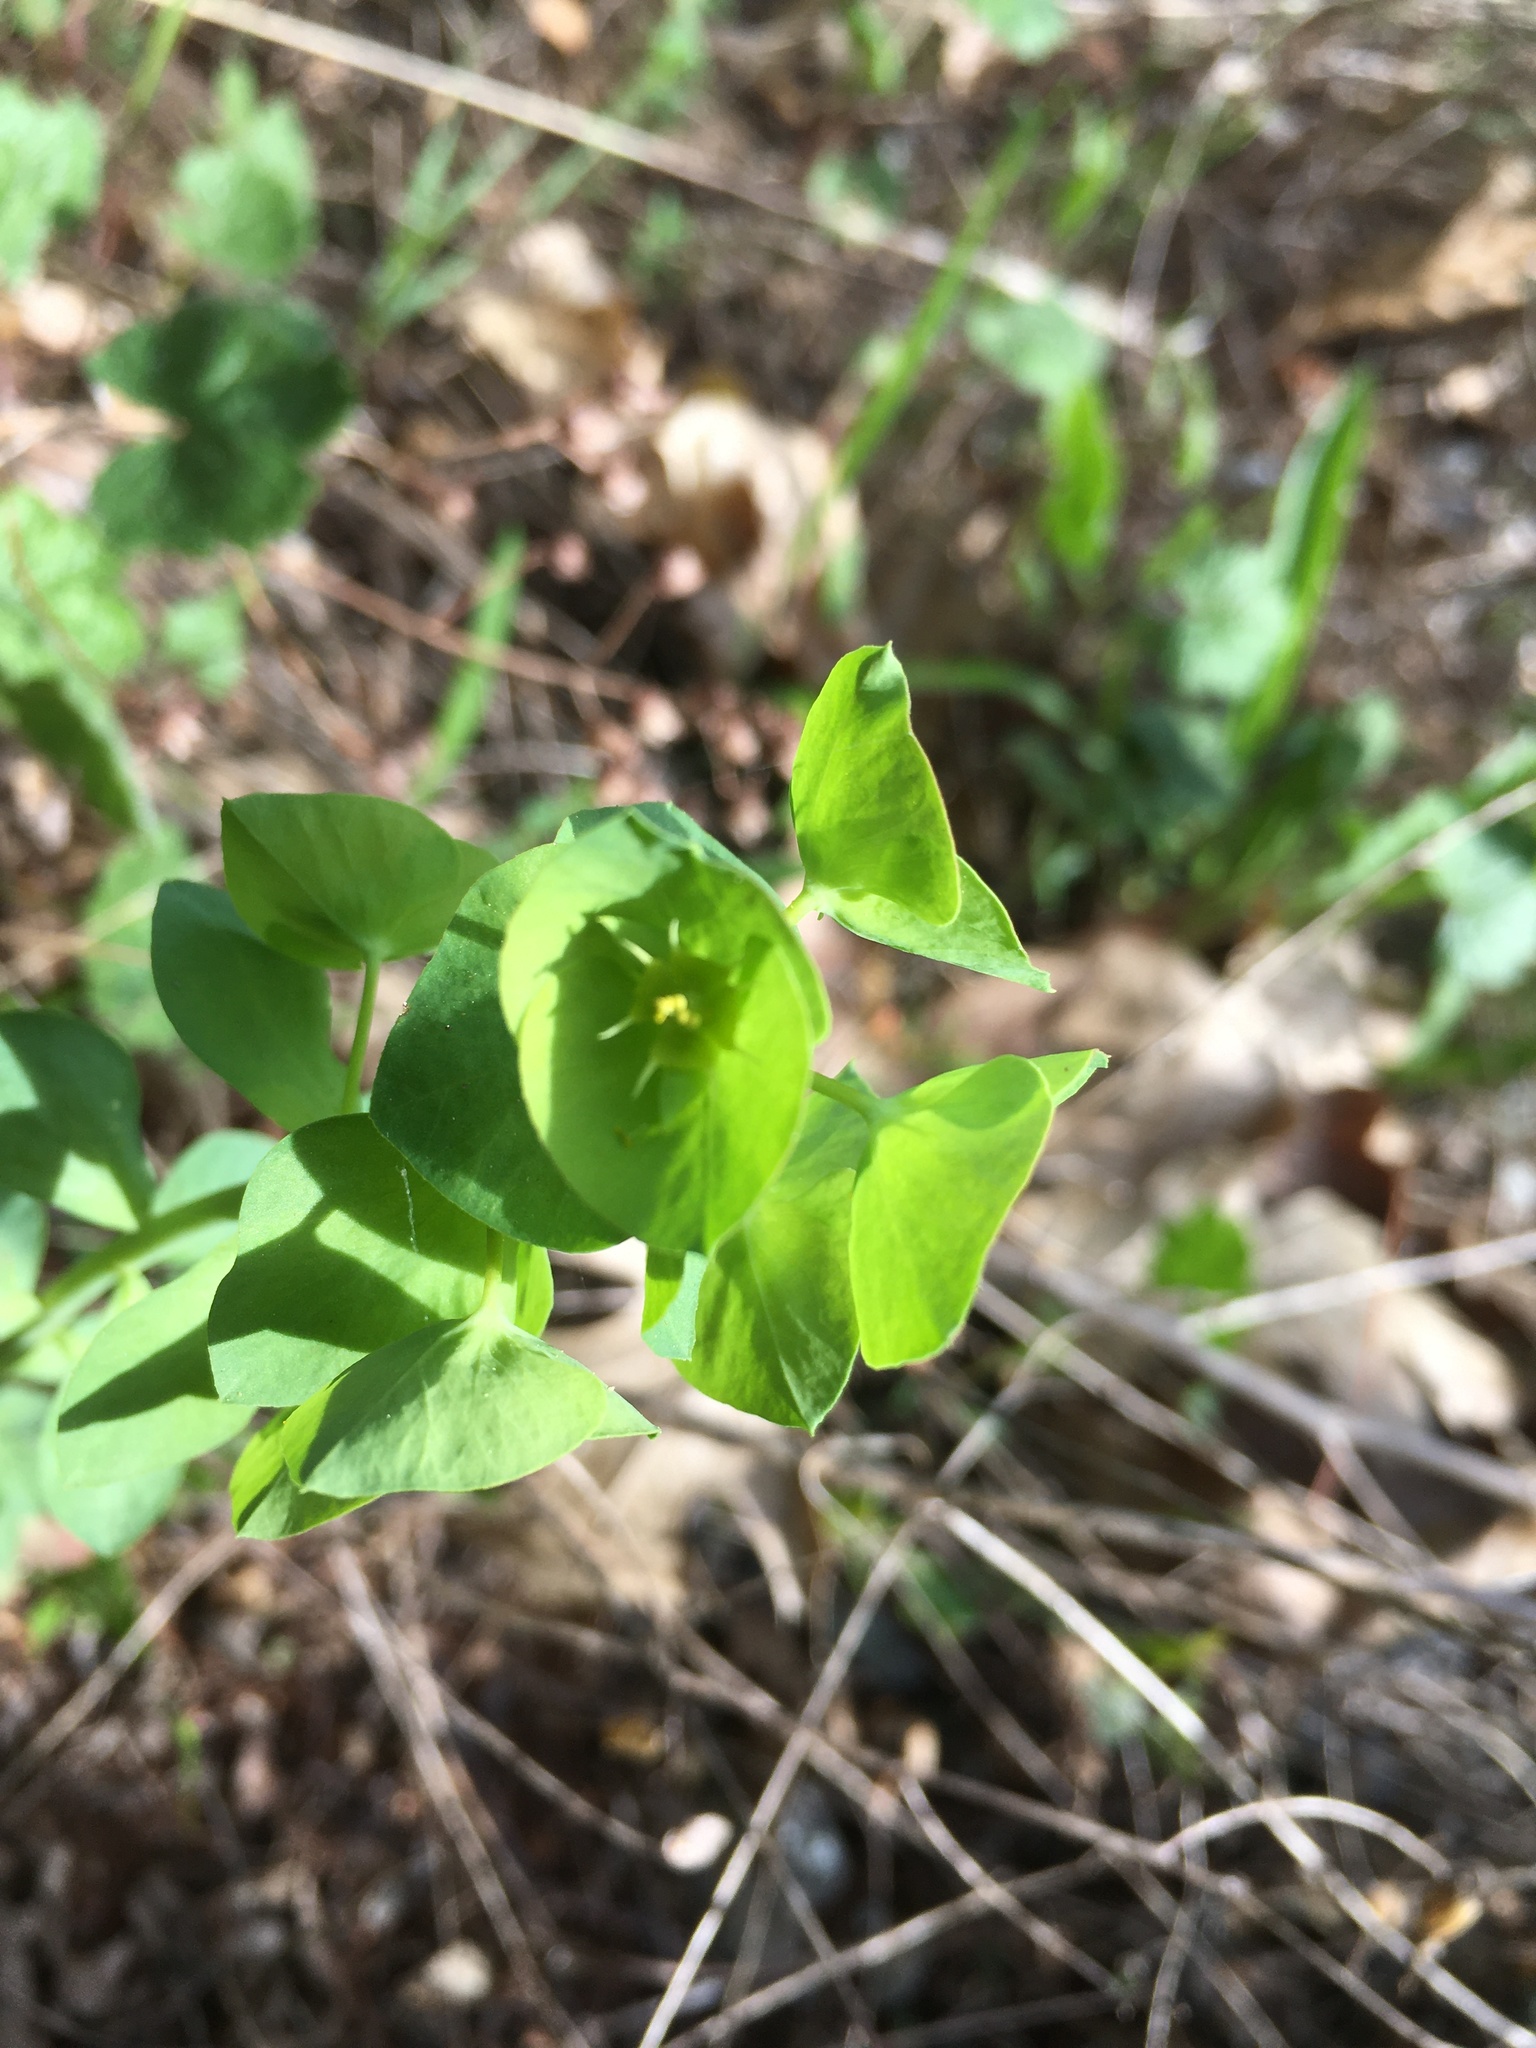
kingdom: Plantae
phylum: Tracheophyta
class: Magnoliopsida
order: Malpighiales
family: Euphorbiaceae
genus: Euphorbia
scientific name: Euphorbia crenulata
